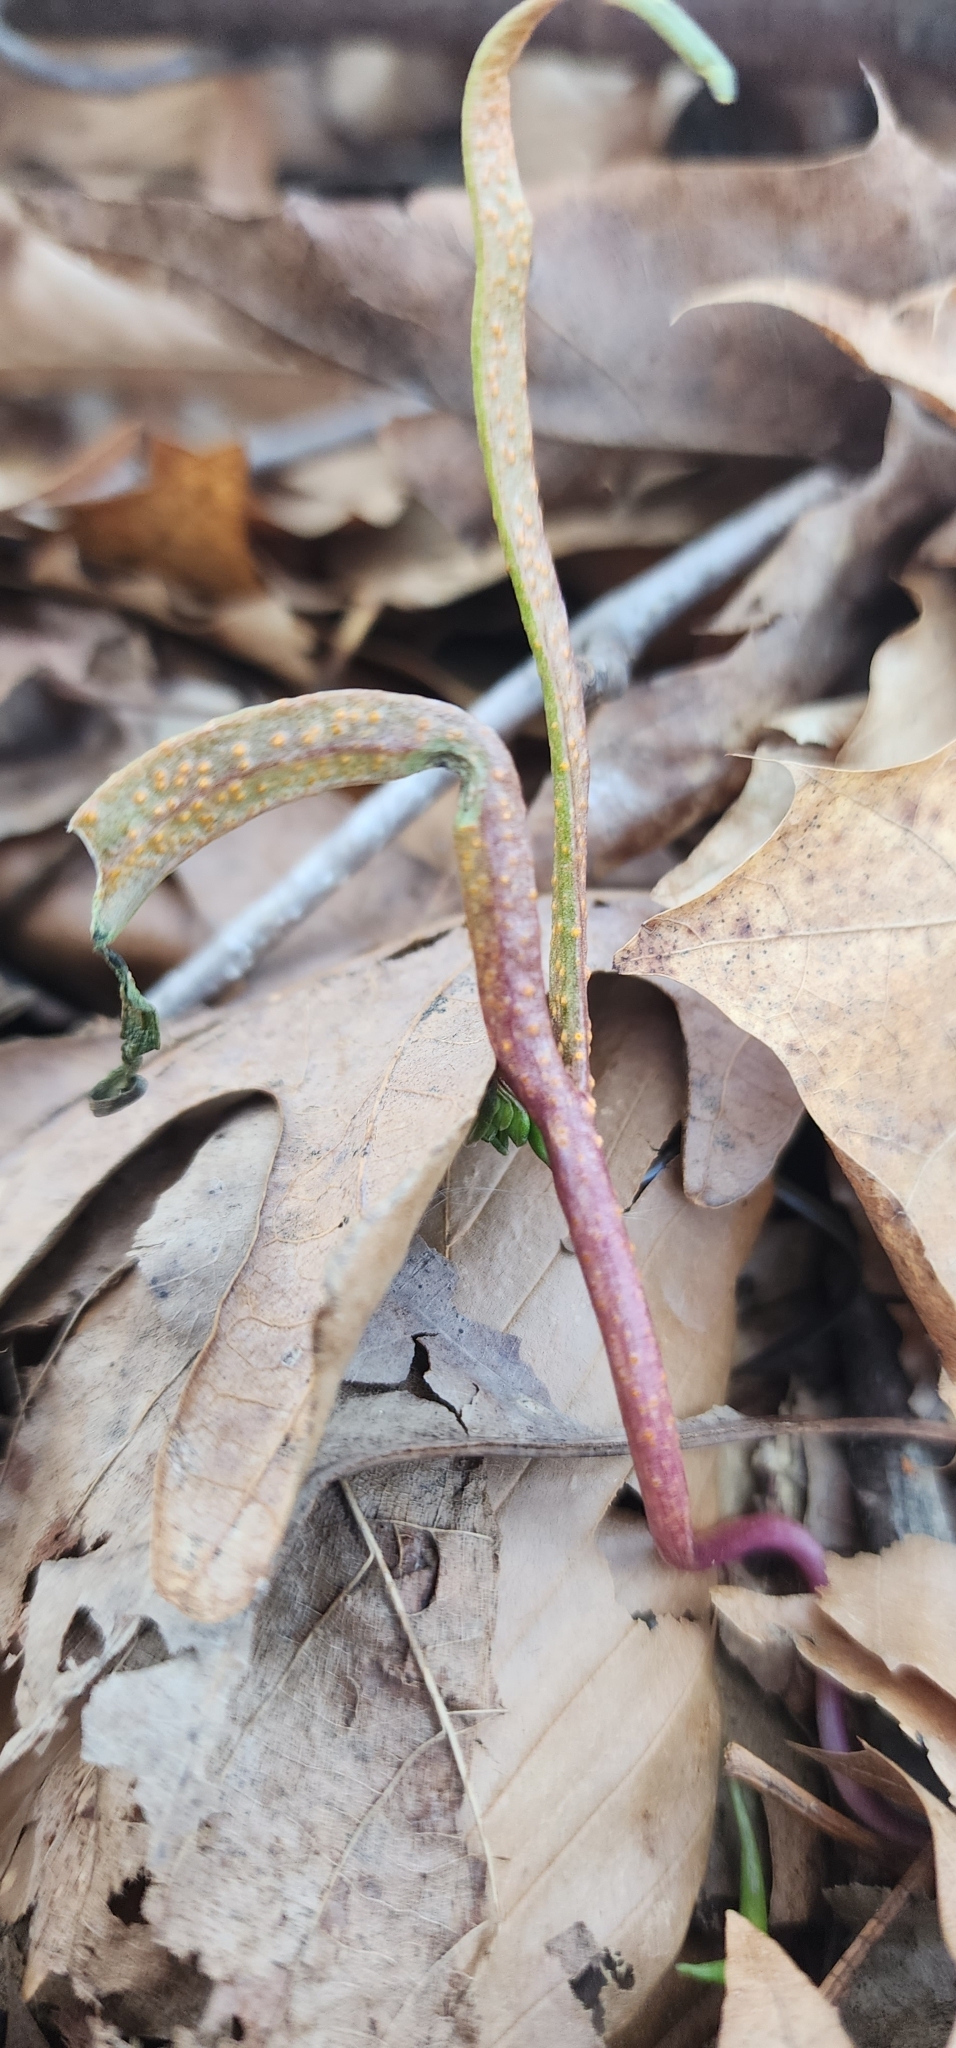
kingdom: Fungi
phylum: Basidiomycota
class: Pucciniomycetes
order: Pucciniales
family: Pucciniaceae
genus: Puccinia
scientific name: Puccinia mariae-wilsoniae
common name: Spring beauty rust
